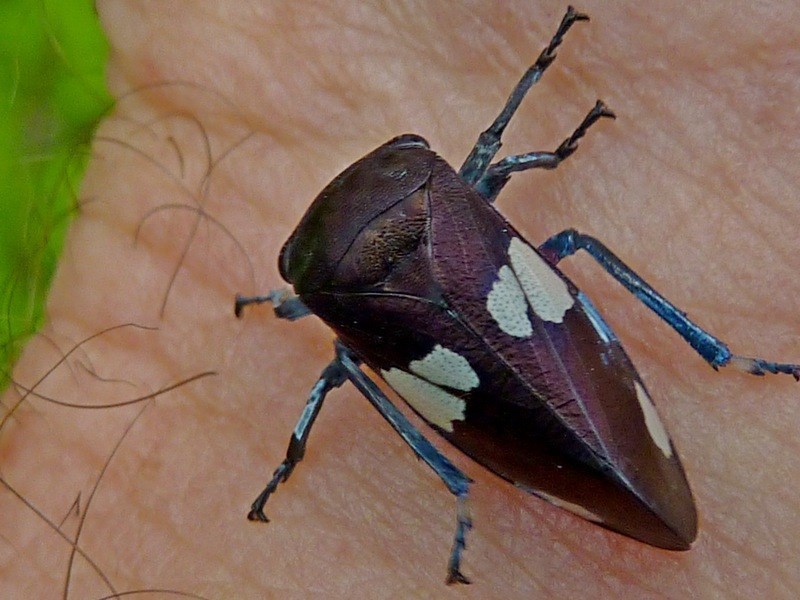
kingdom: Animalia
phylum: Arthropoda
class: Insecta
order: Hemiptera
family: Cicadellidae
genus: Eurymela
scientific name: Eurymela distincta
